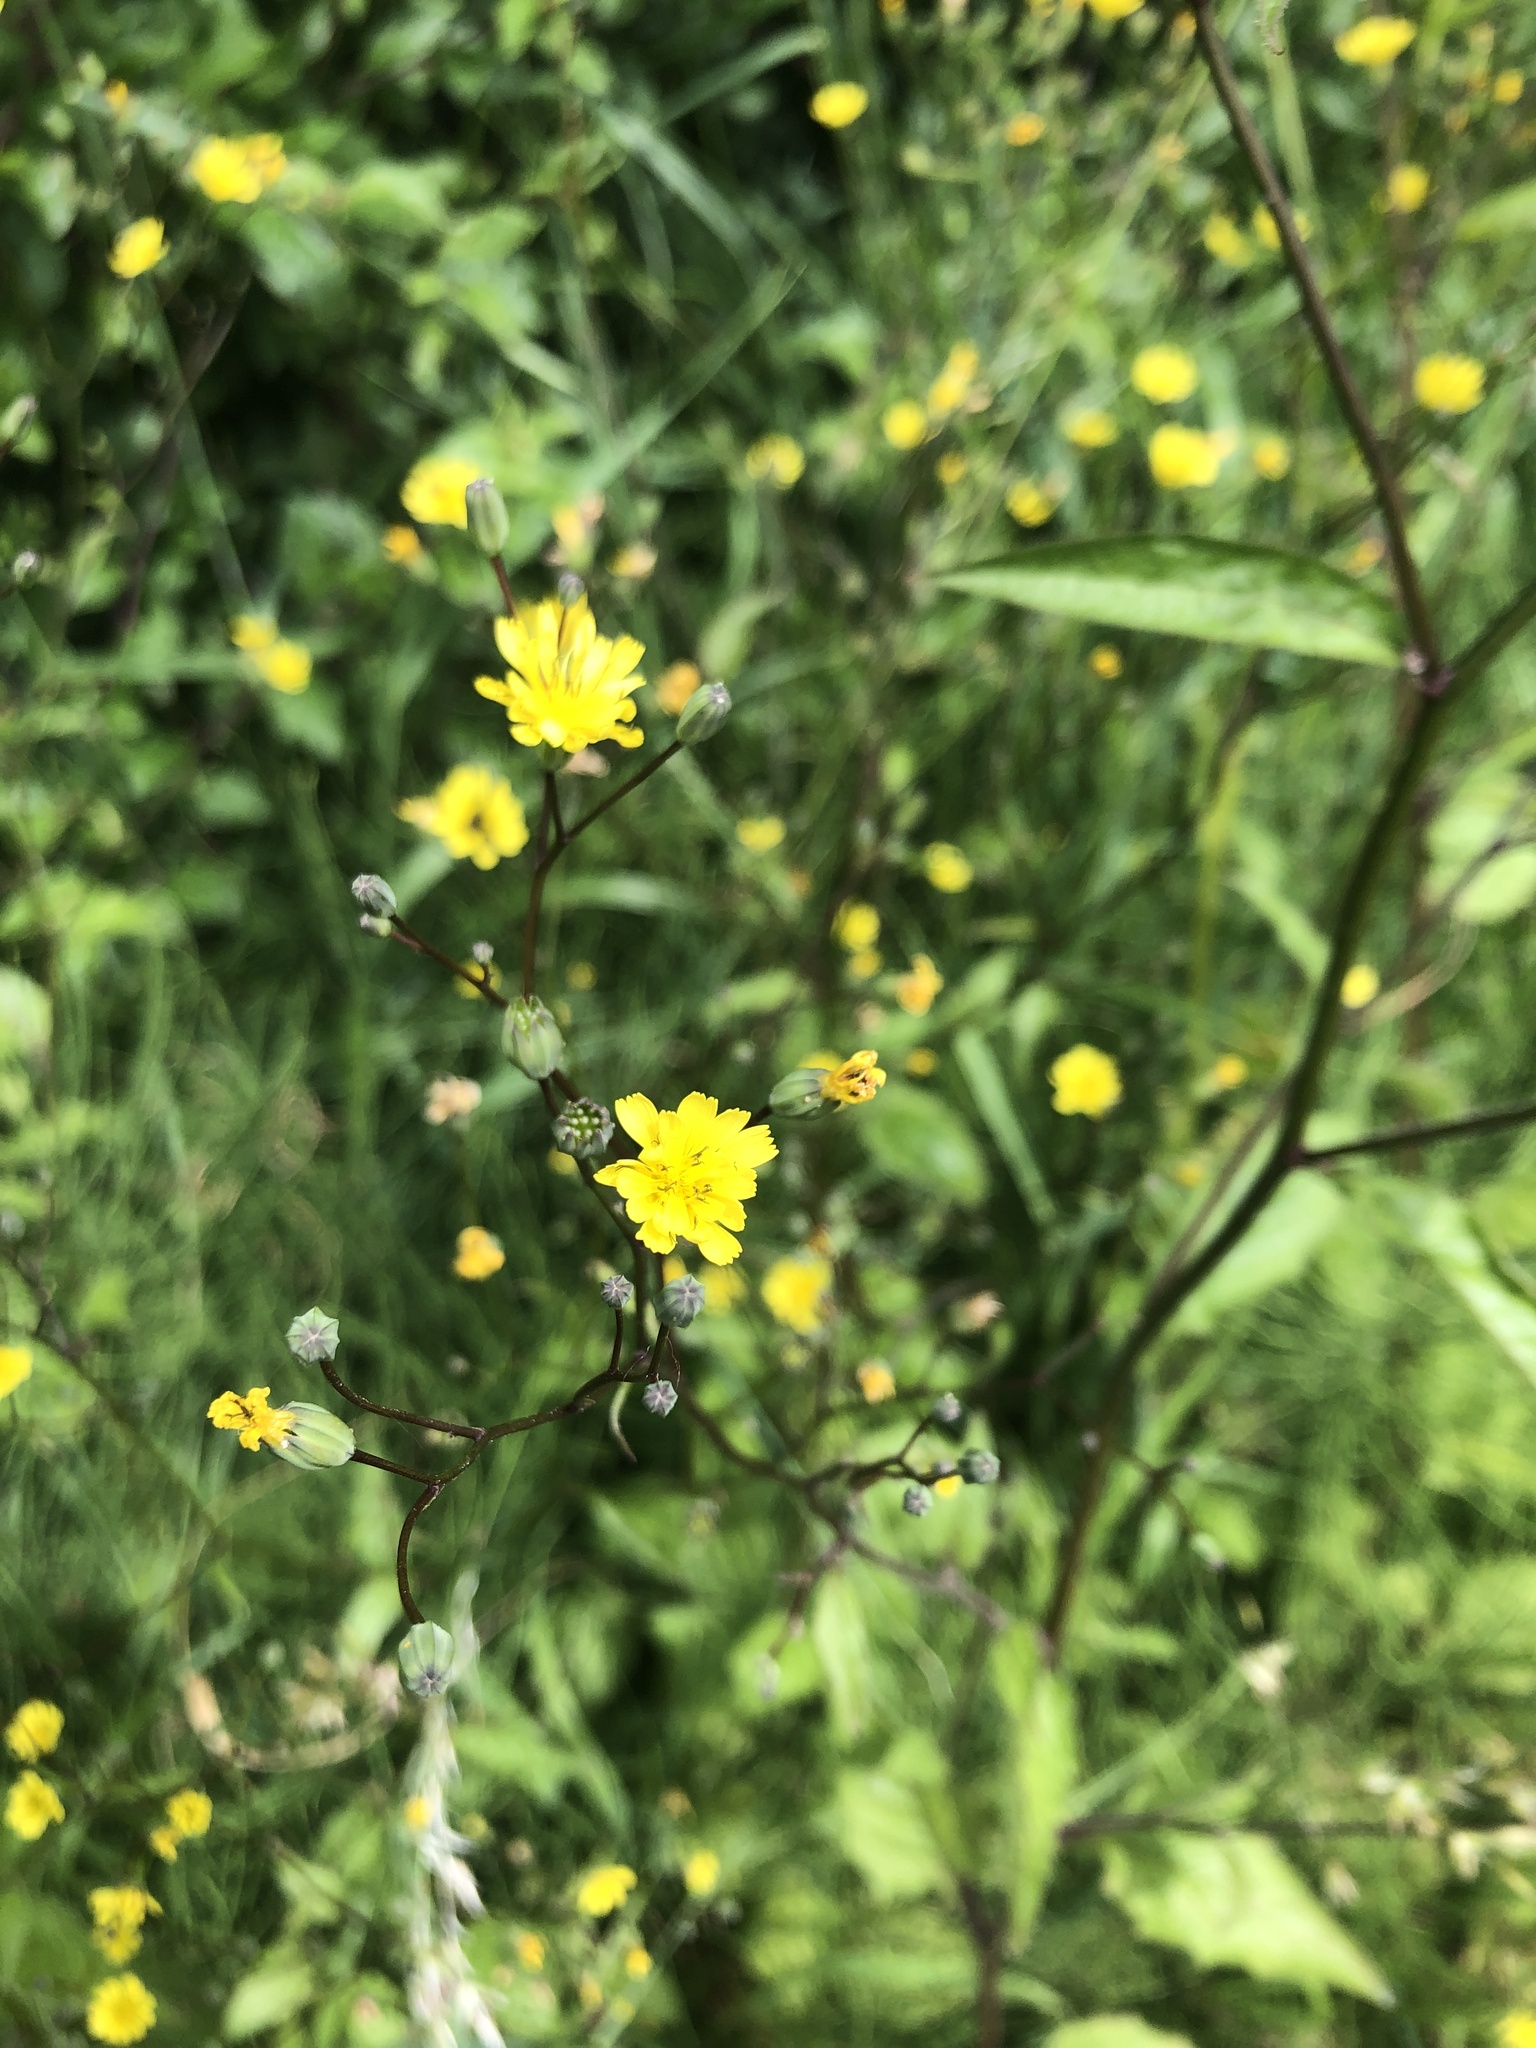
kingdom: Plantae
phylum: Tracheophyta
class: Magnoliopsida
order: Asterales
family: Asteraceae
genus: Lapsana
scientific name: Lapsana communis
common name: Nipplewort
